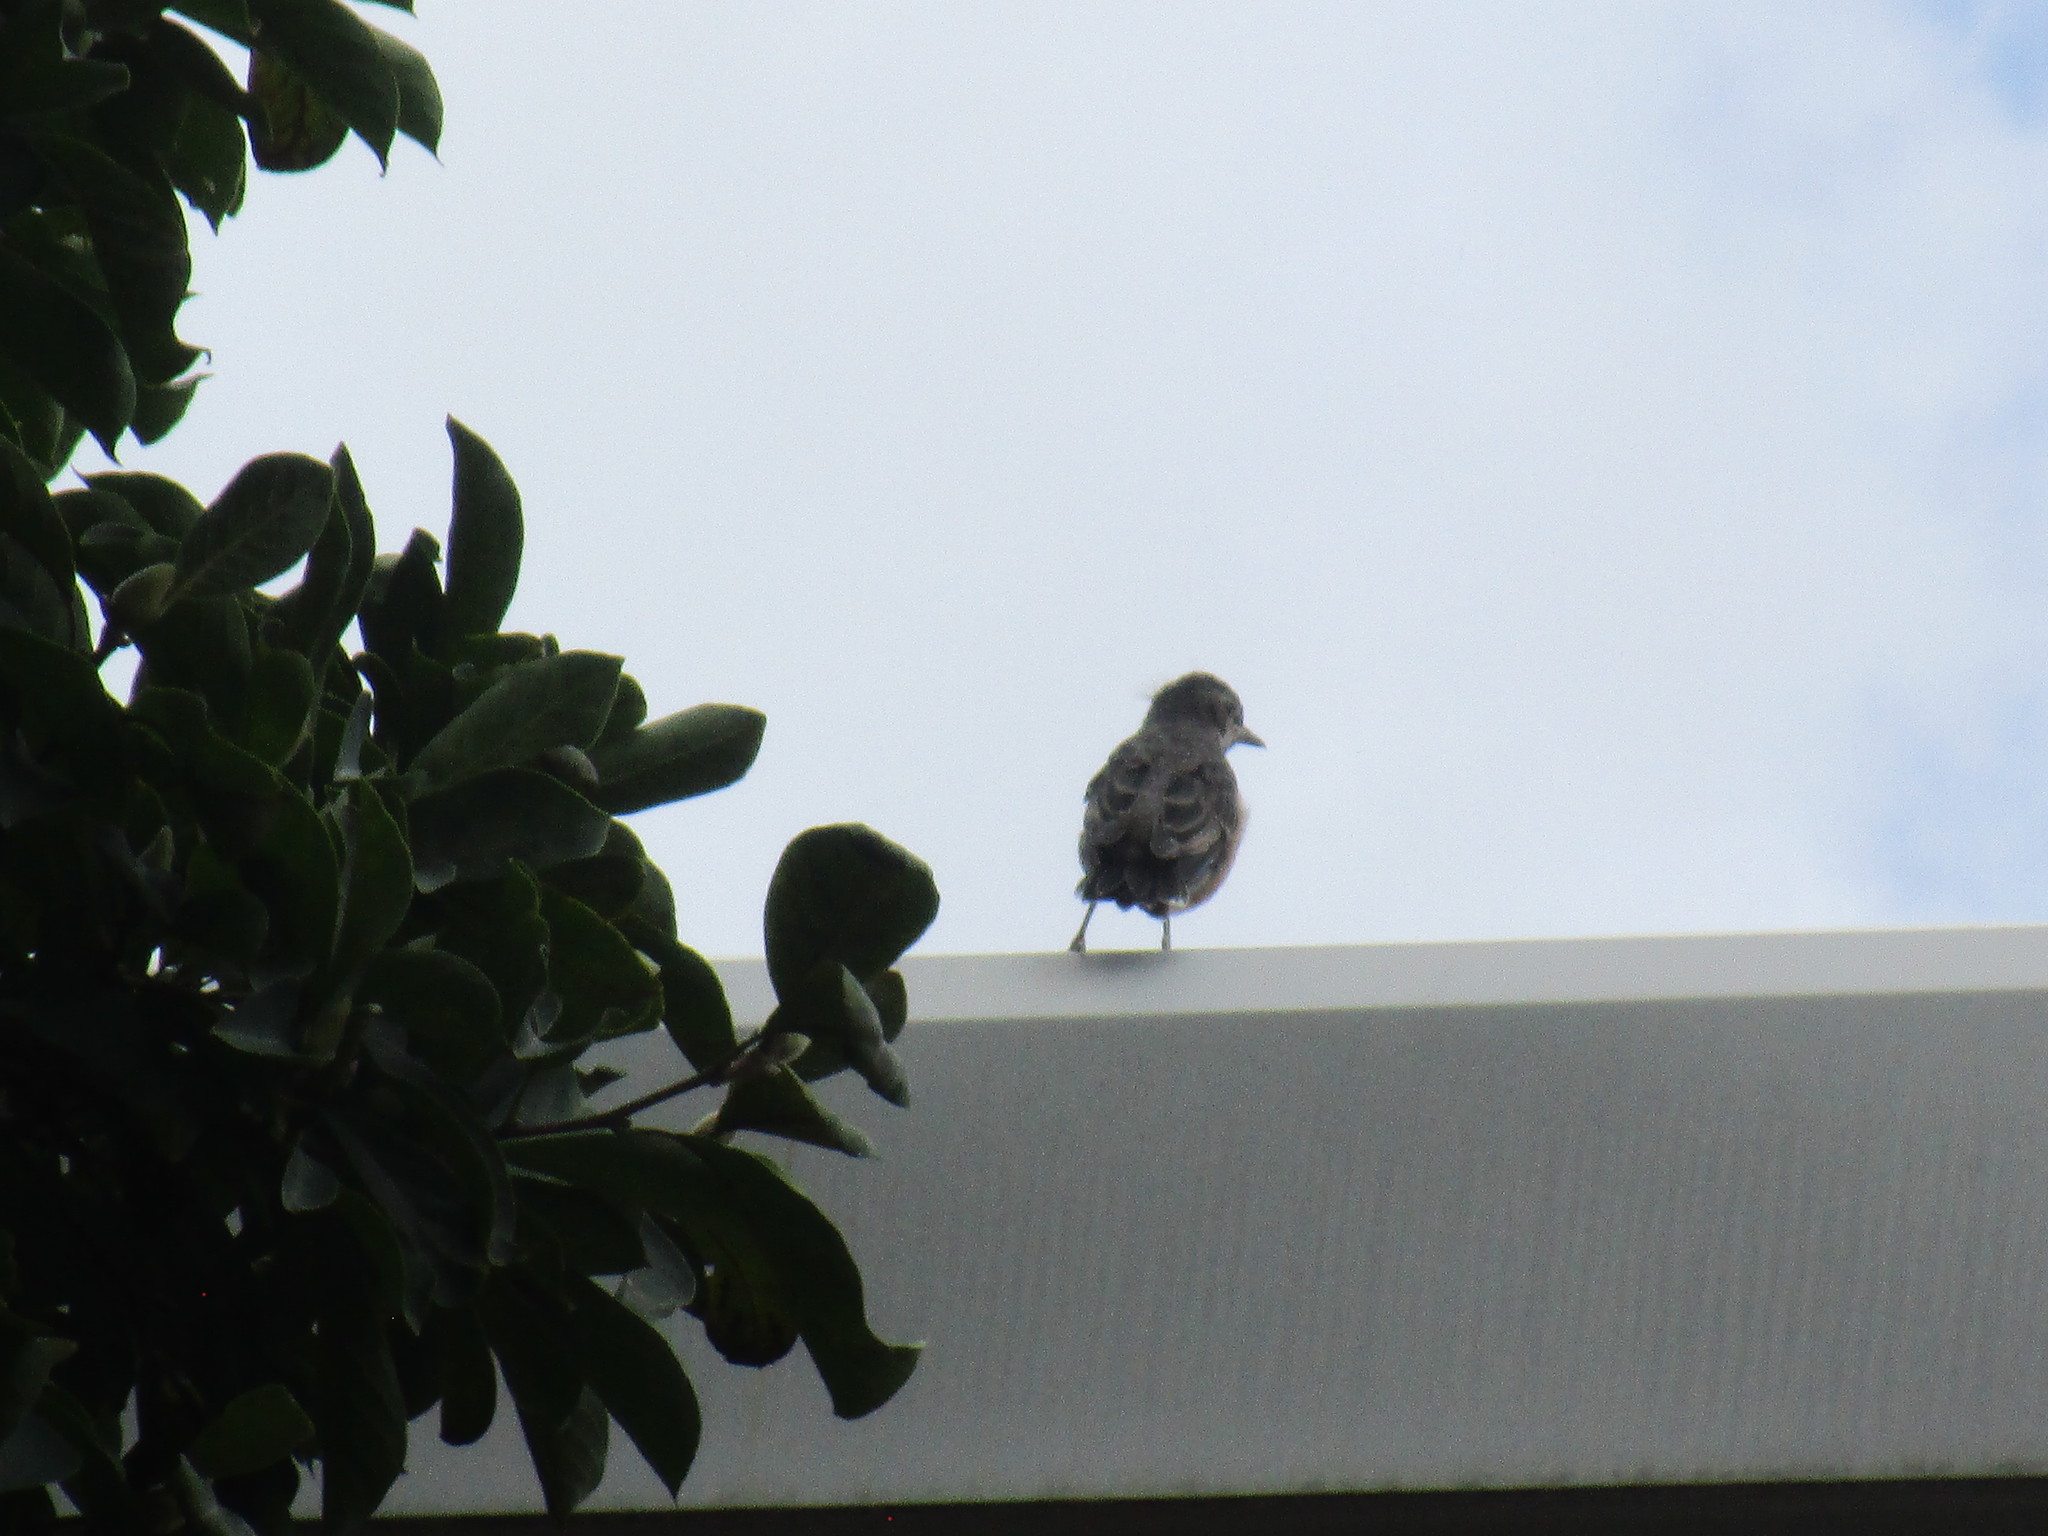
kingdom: Animalia
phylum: Chordata
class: Aves
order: Passeriformes
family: Turdidae
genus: Turdus
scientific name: Turdus migratorius
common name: American robin
